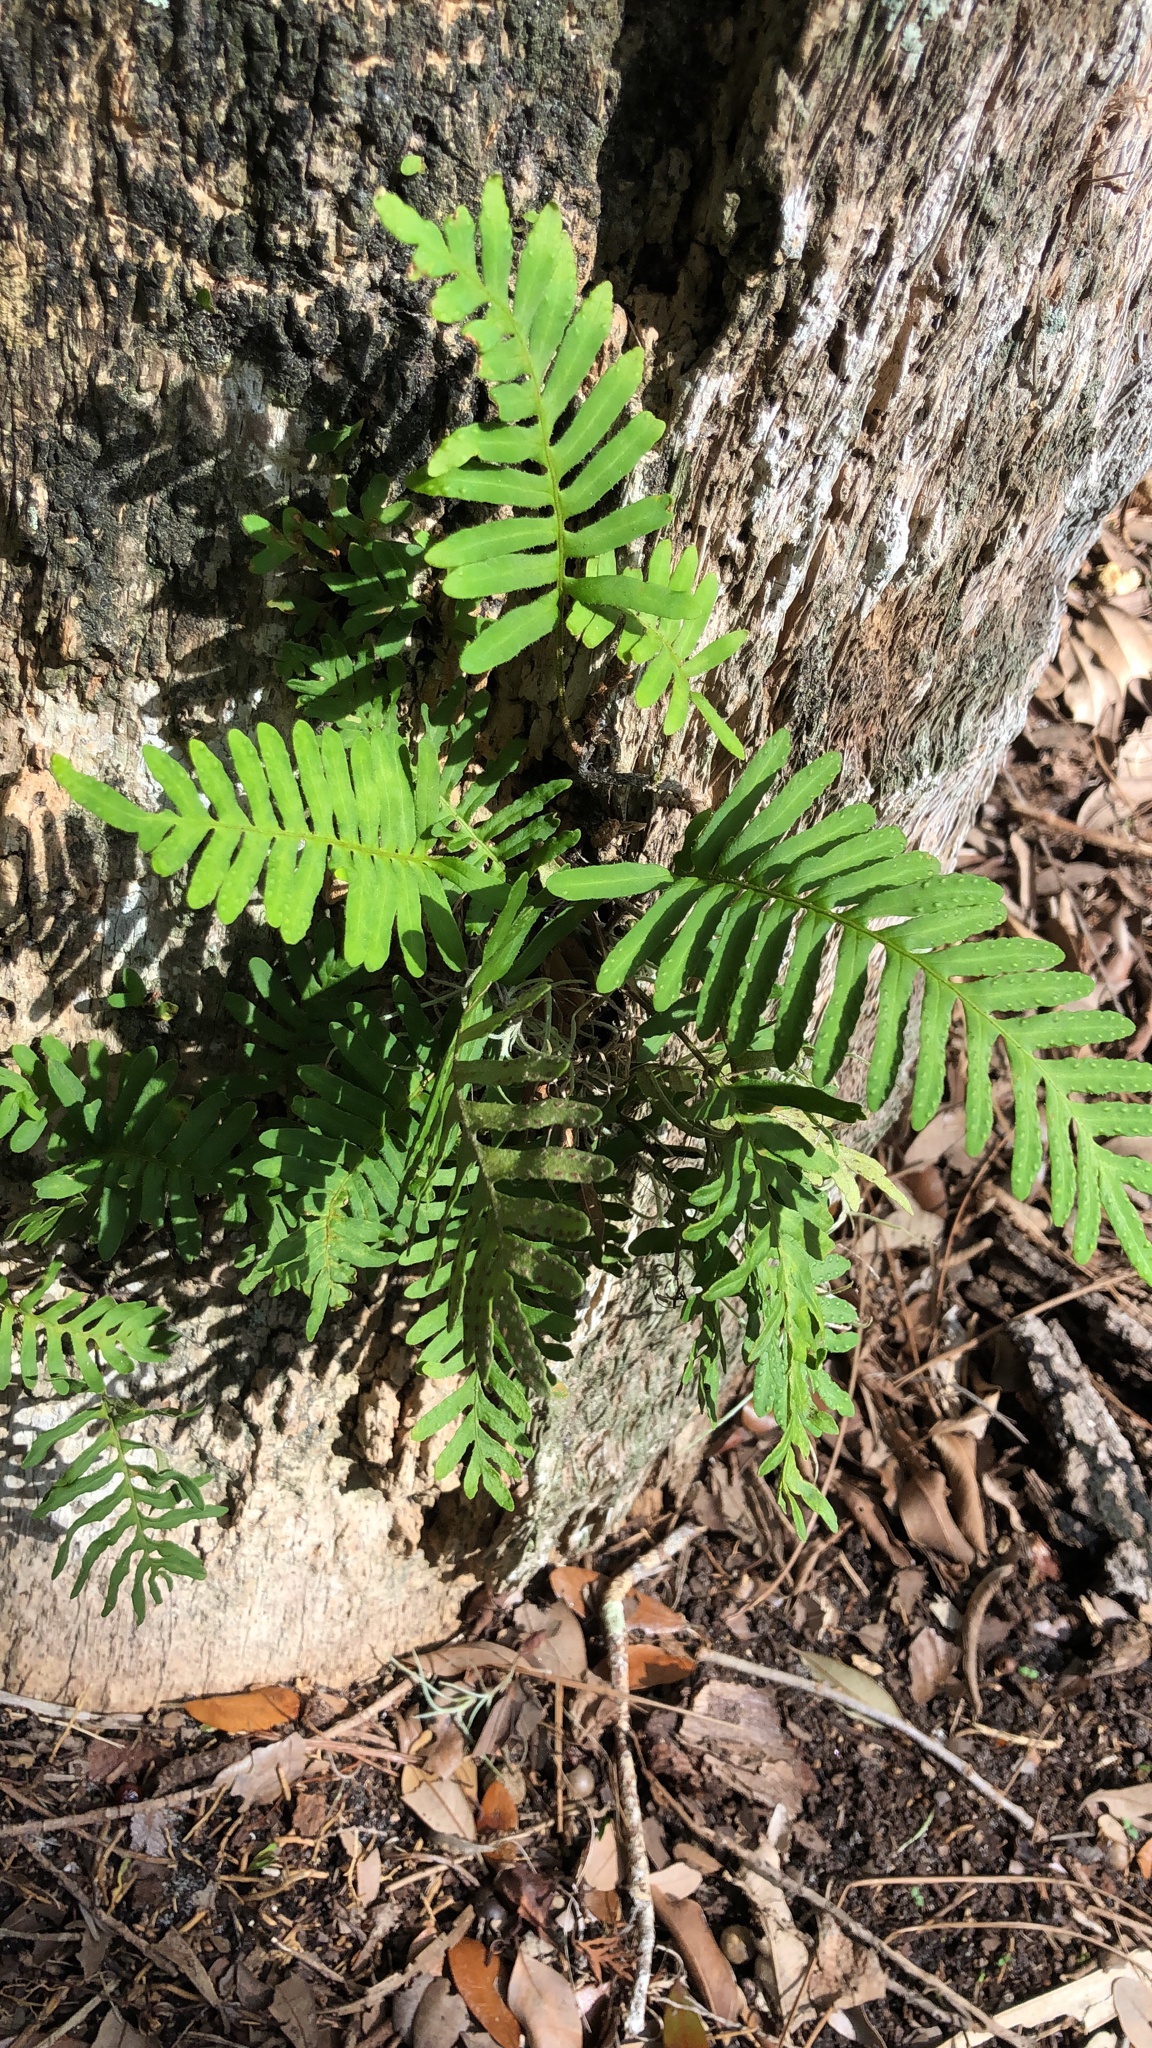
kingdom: Plantae
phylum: Tracheophyta
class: Polypodiopsida
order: Polypodiales
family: Polypodiaceae
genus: Pleopeltis
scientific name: Pleopeltis michauxiana
